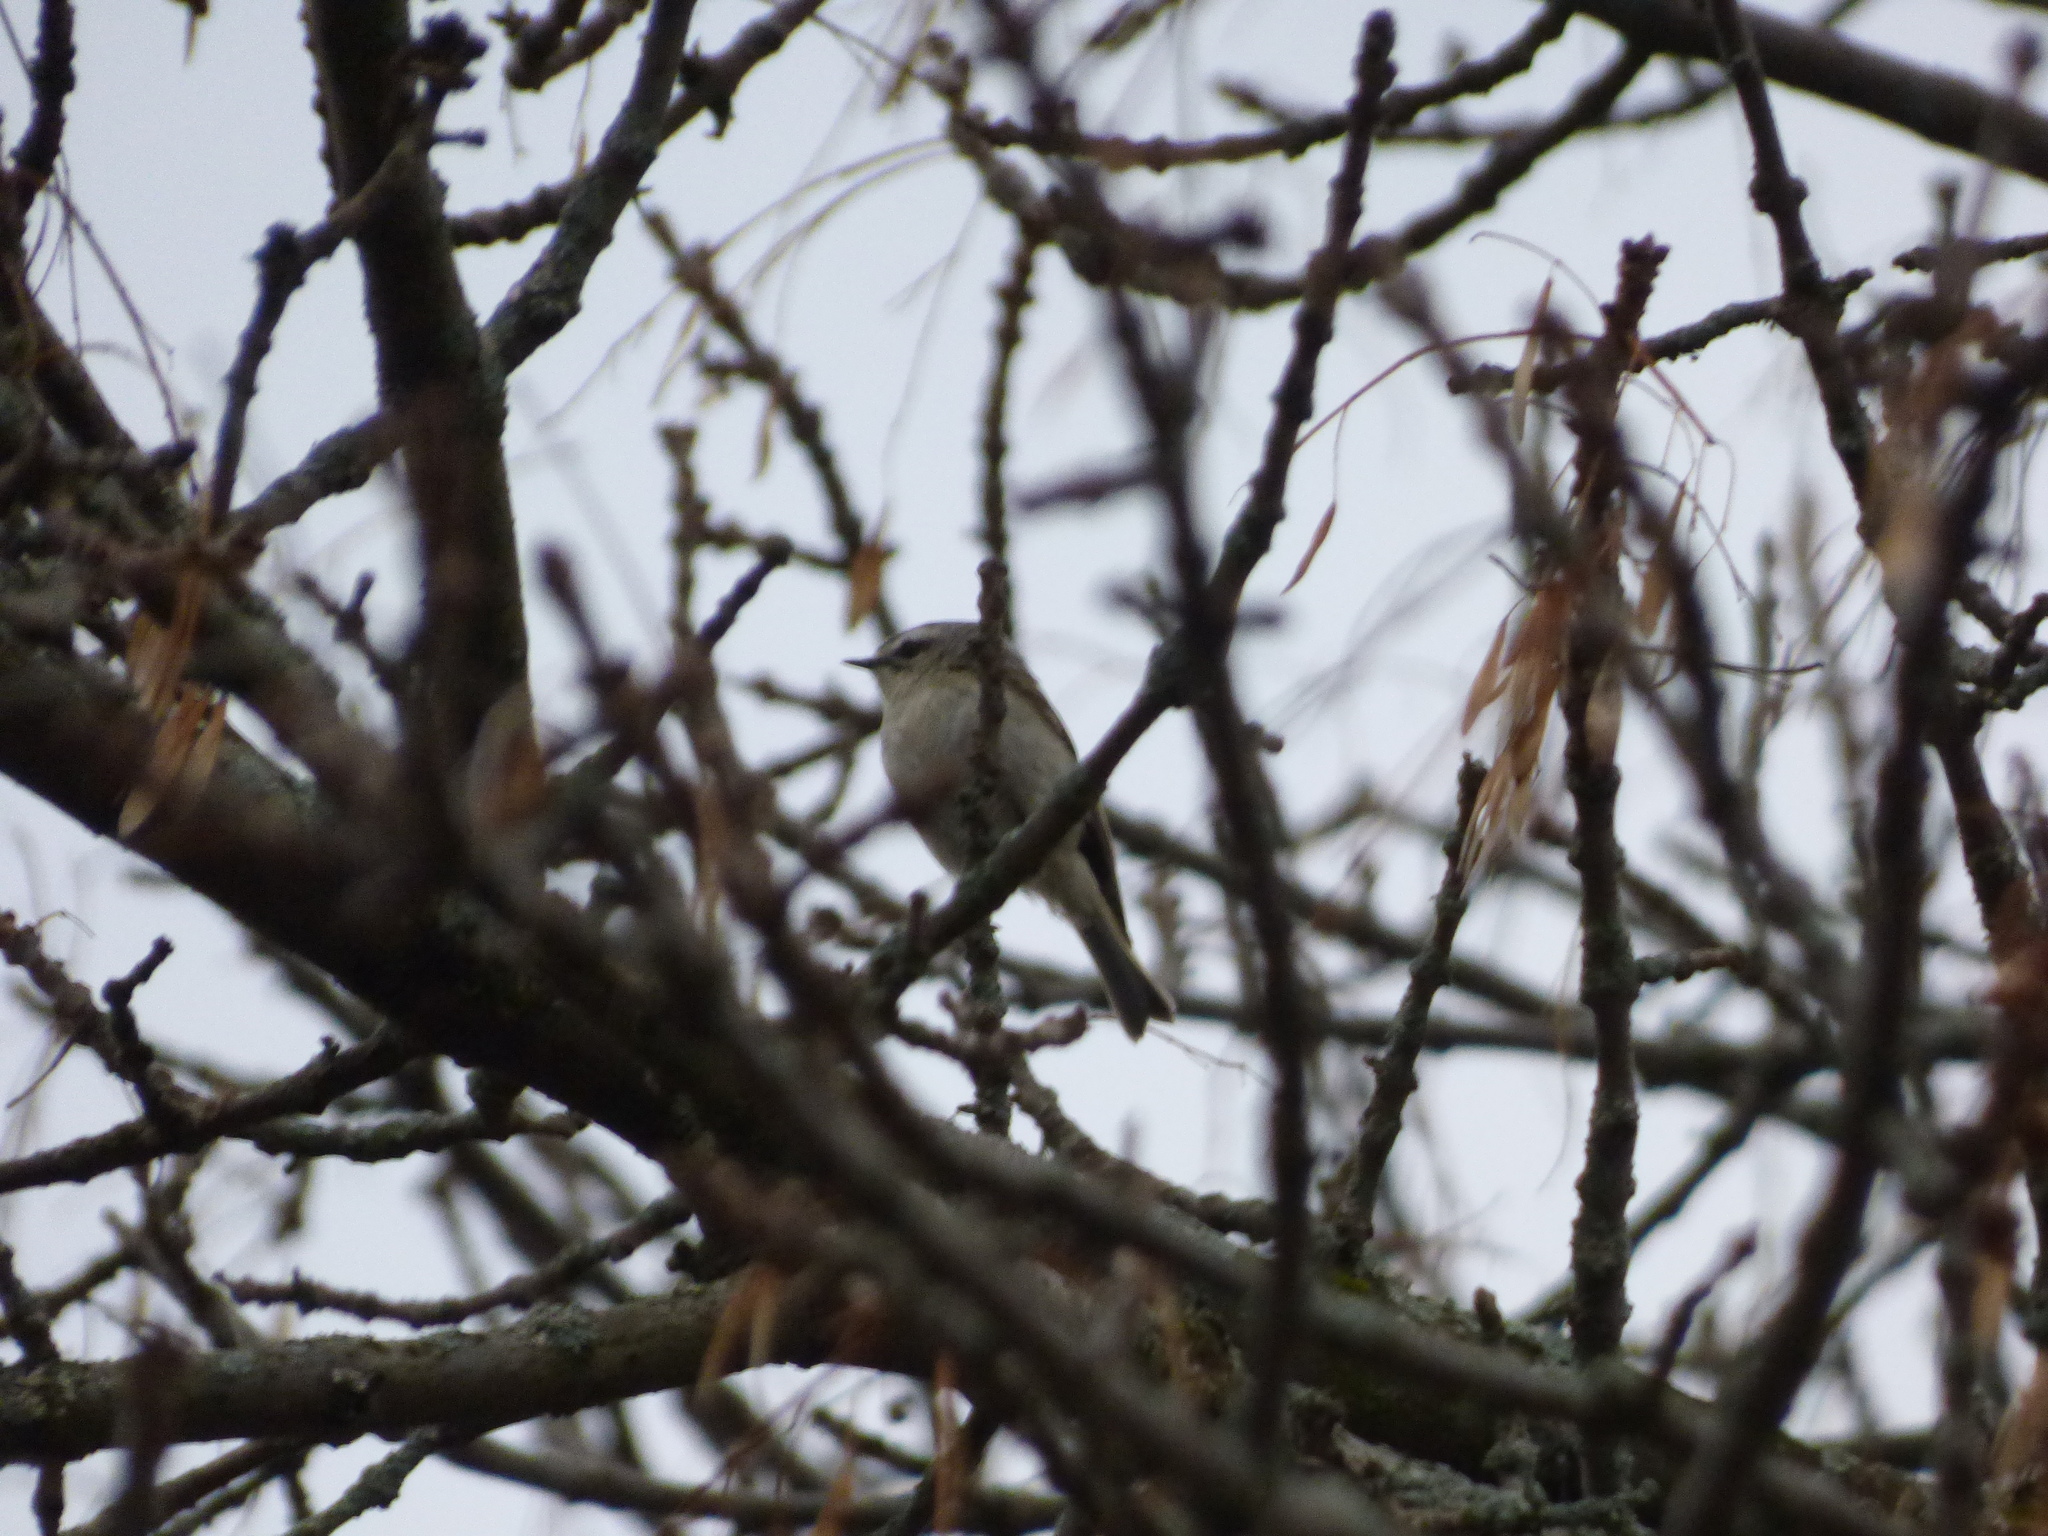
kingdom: Animalia
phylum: Chordata
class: Aves
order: Passeriformes
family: Regulidae
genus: Regulus
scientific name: Regulus satrapa
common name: Golden-crowned kinglet
